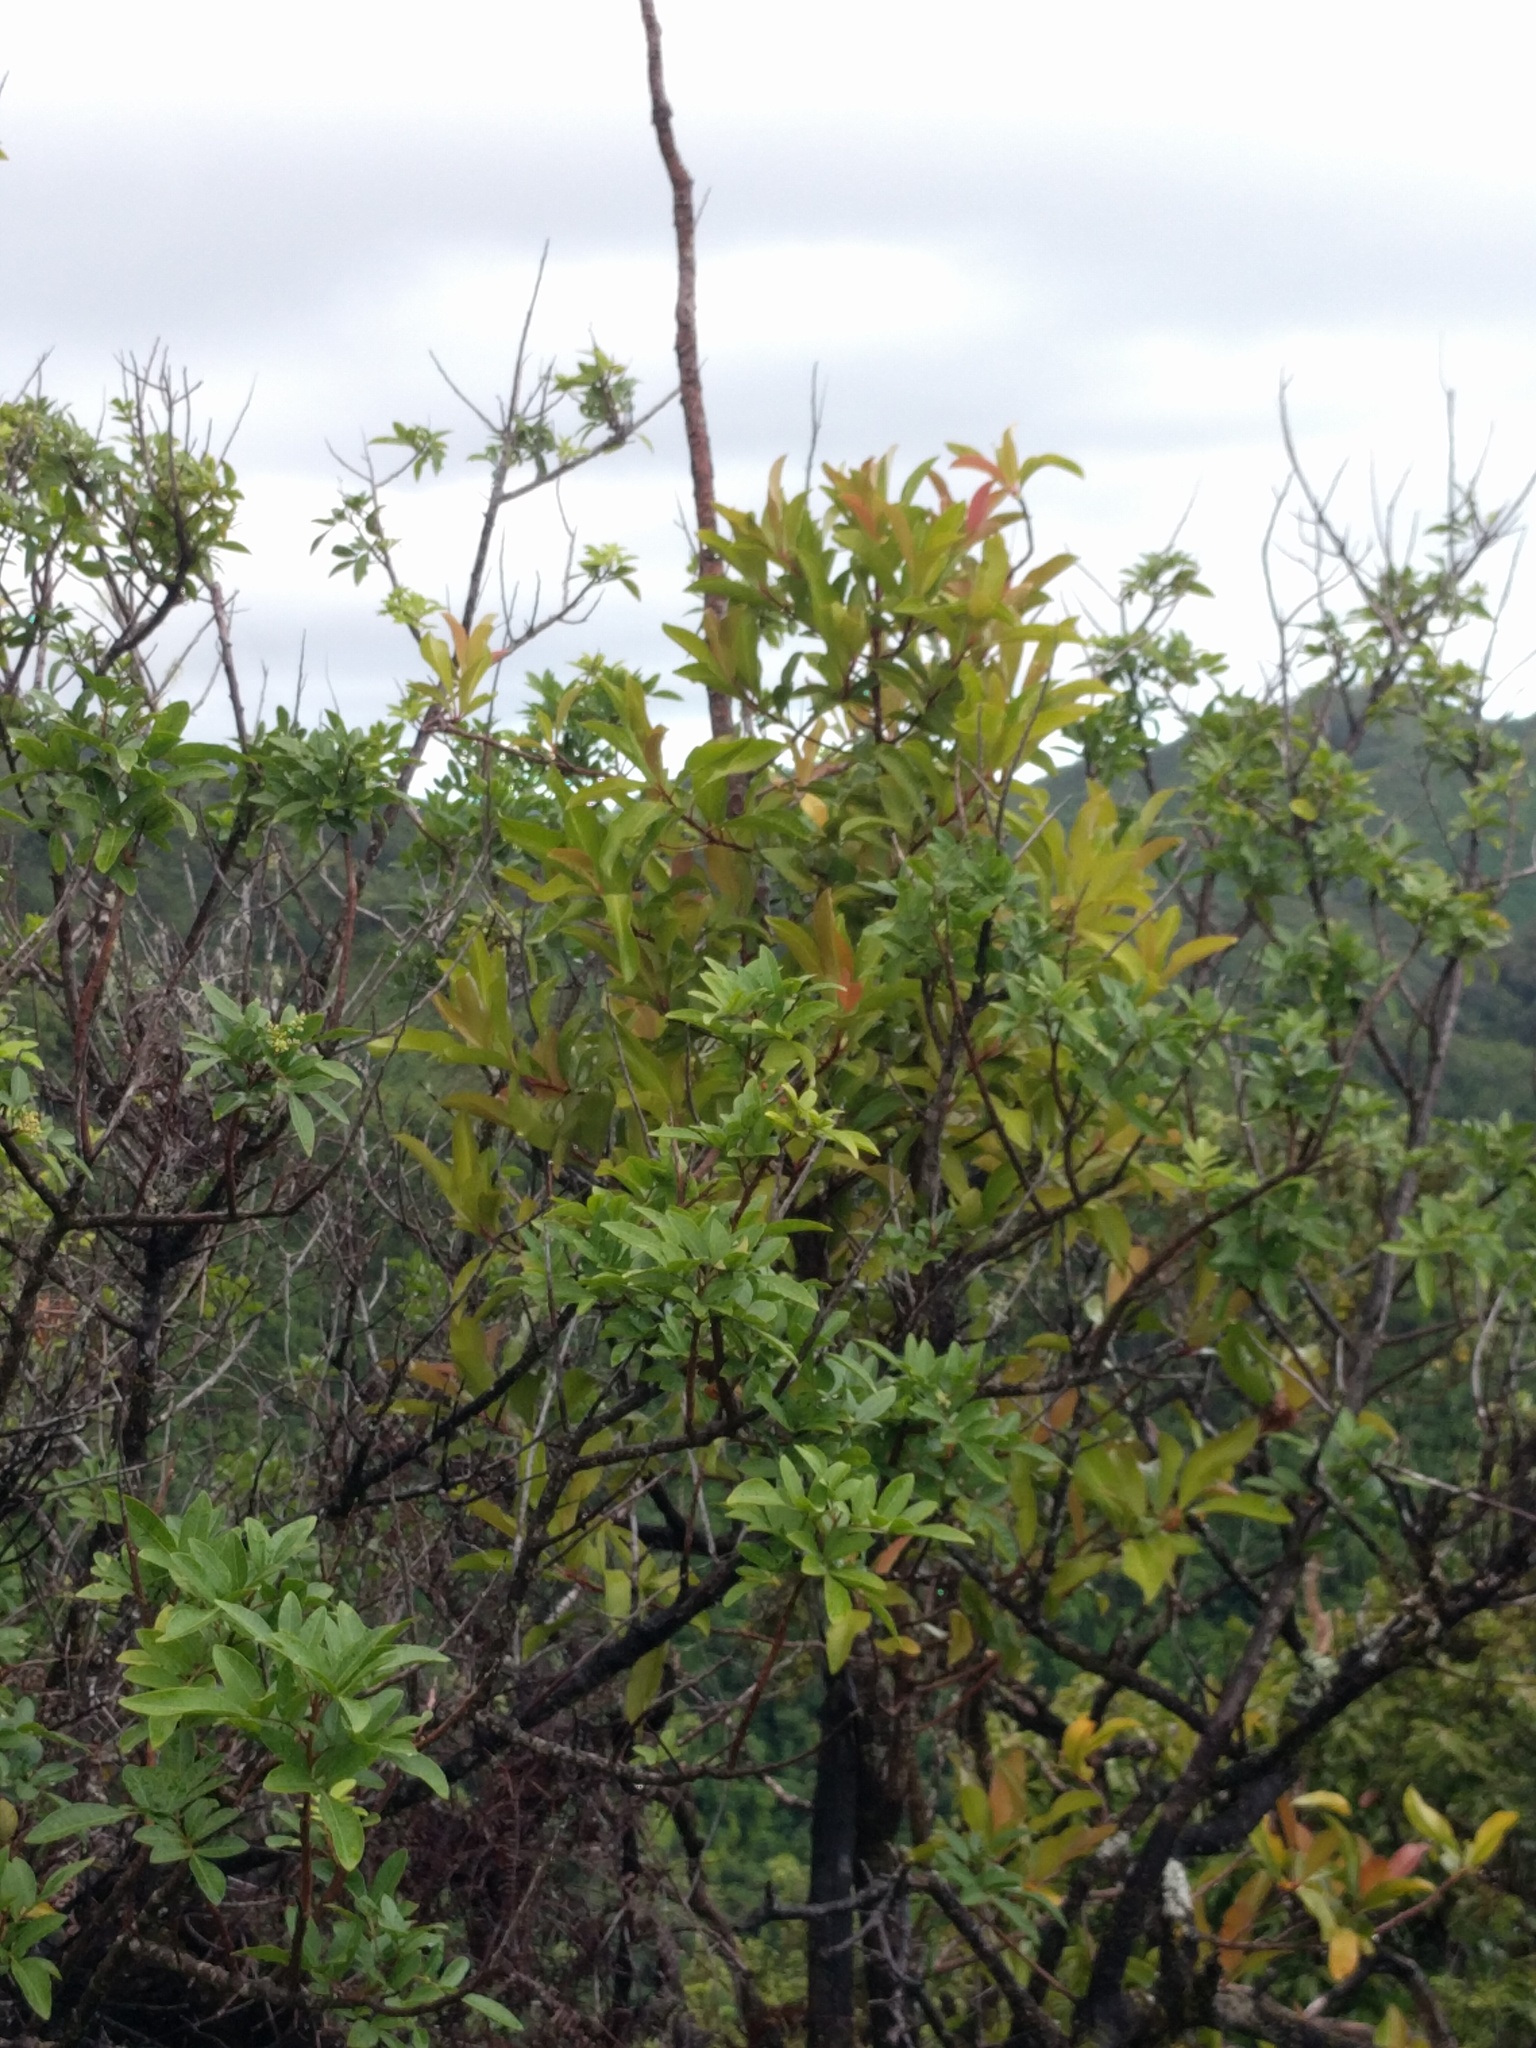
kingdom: Plantae
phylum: Tracheophyta
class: Magnoliopsida
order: Ericales
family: Primulaceae
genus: Ardisia
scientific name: Ardisia elliptica
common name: Shoebutton
